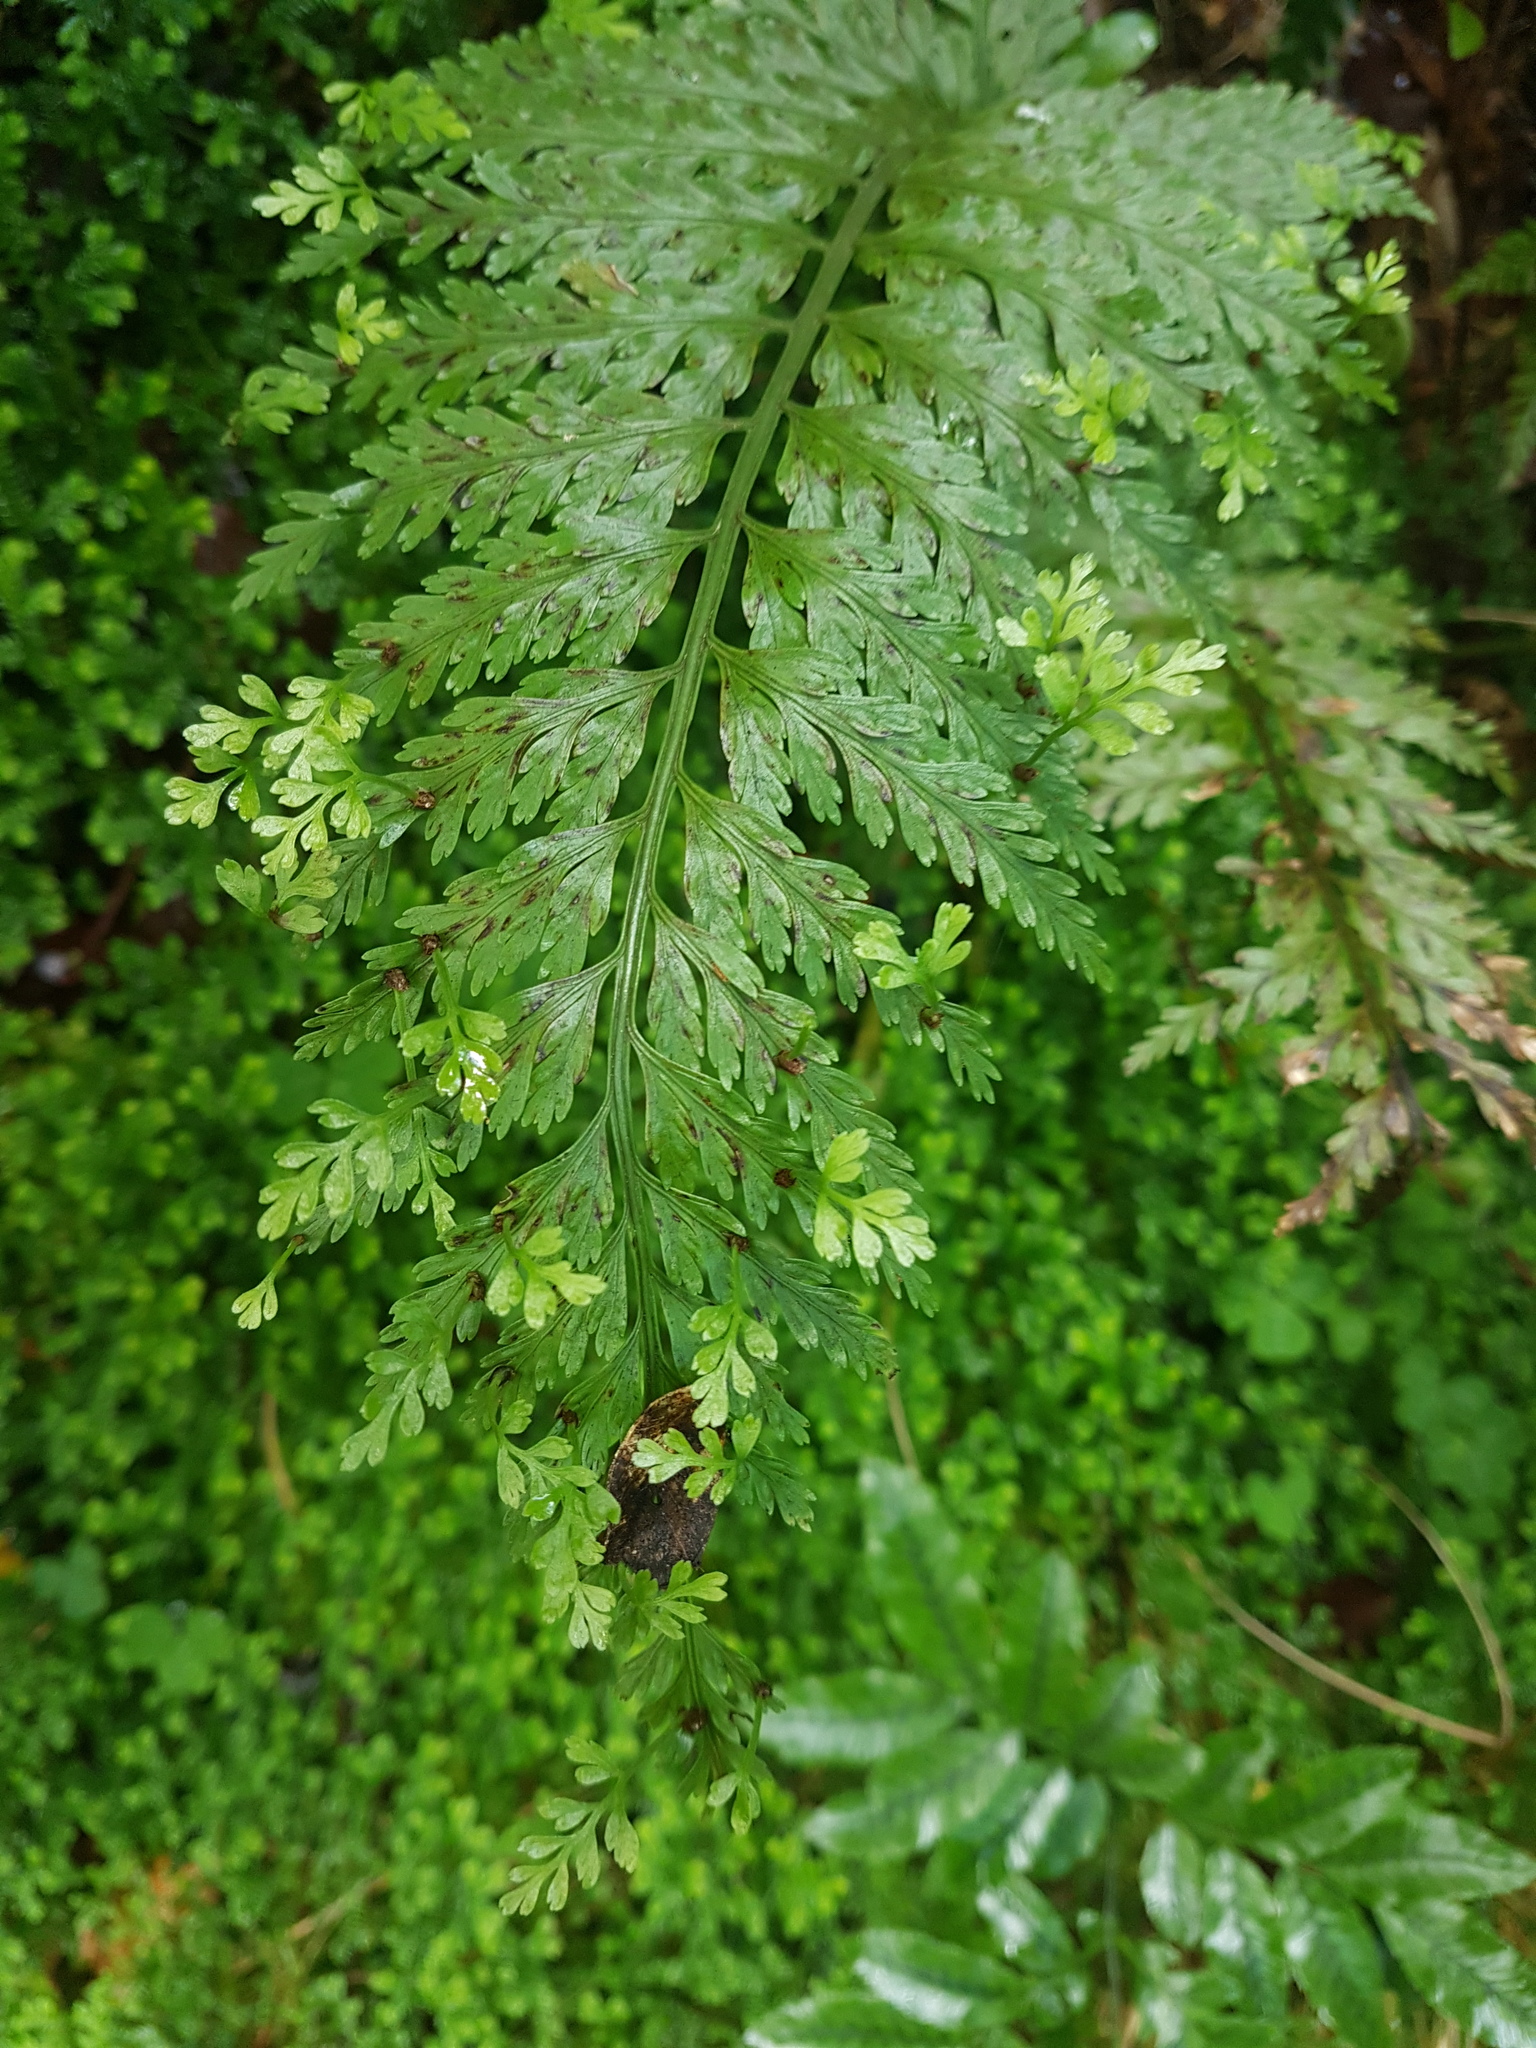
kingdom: Plantae
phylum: Tracheophyta
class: Polypodiopsida
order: Polypodiales
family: Aspleniaceae
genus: Asplenium
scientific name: Asplenium bulbiferum
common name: Mother fern
